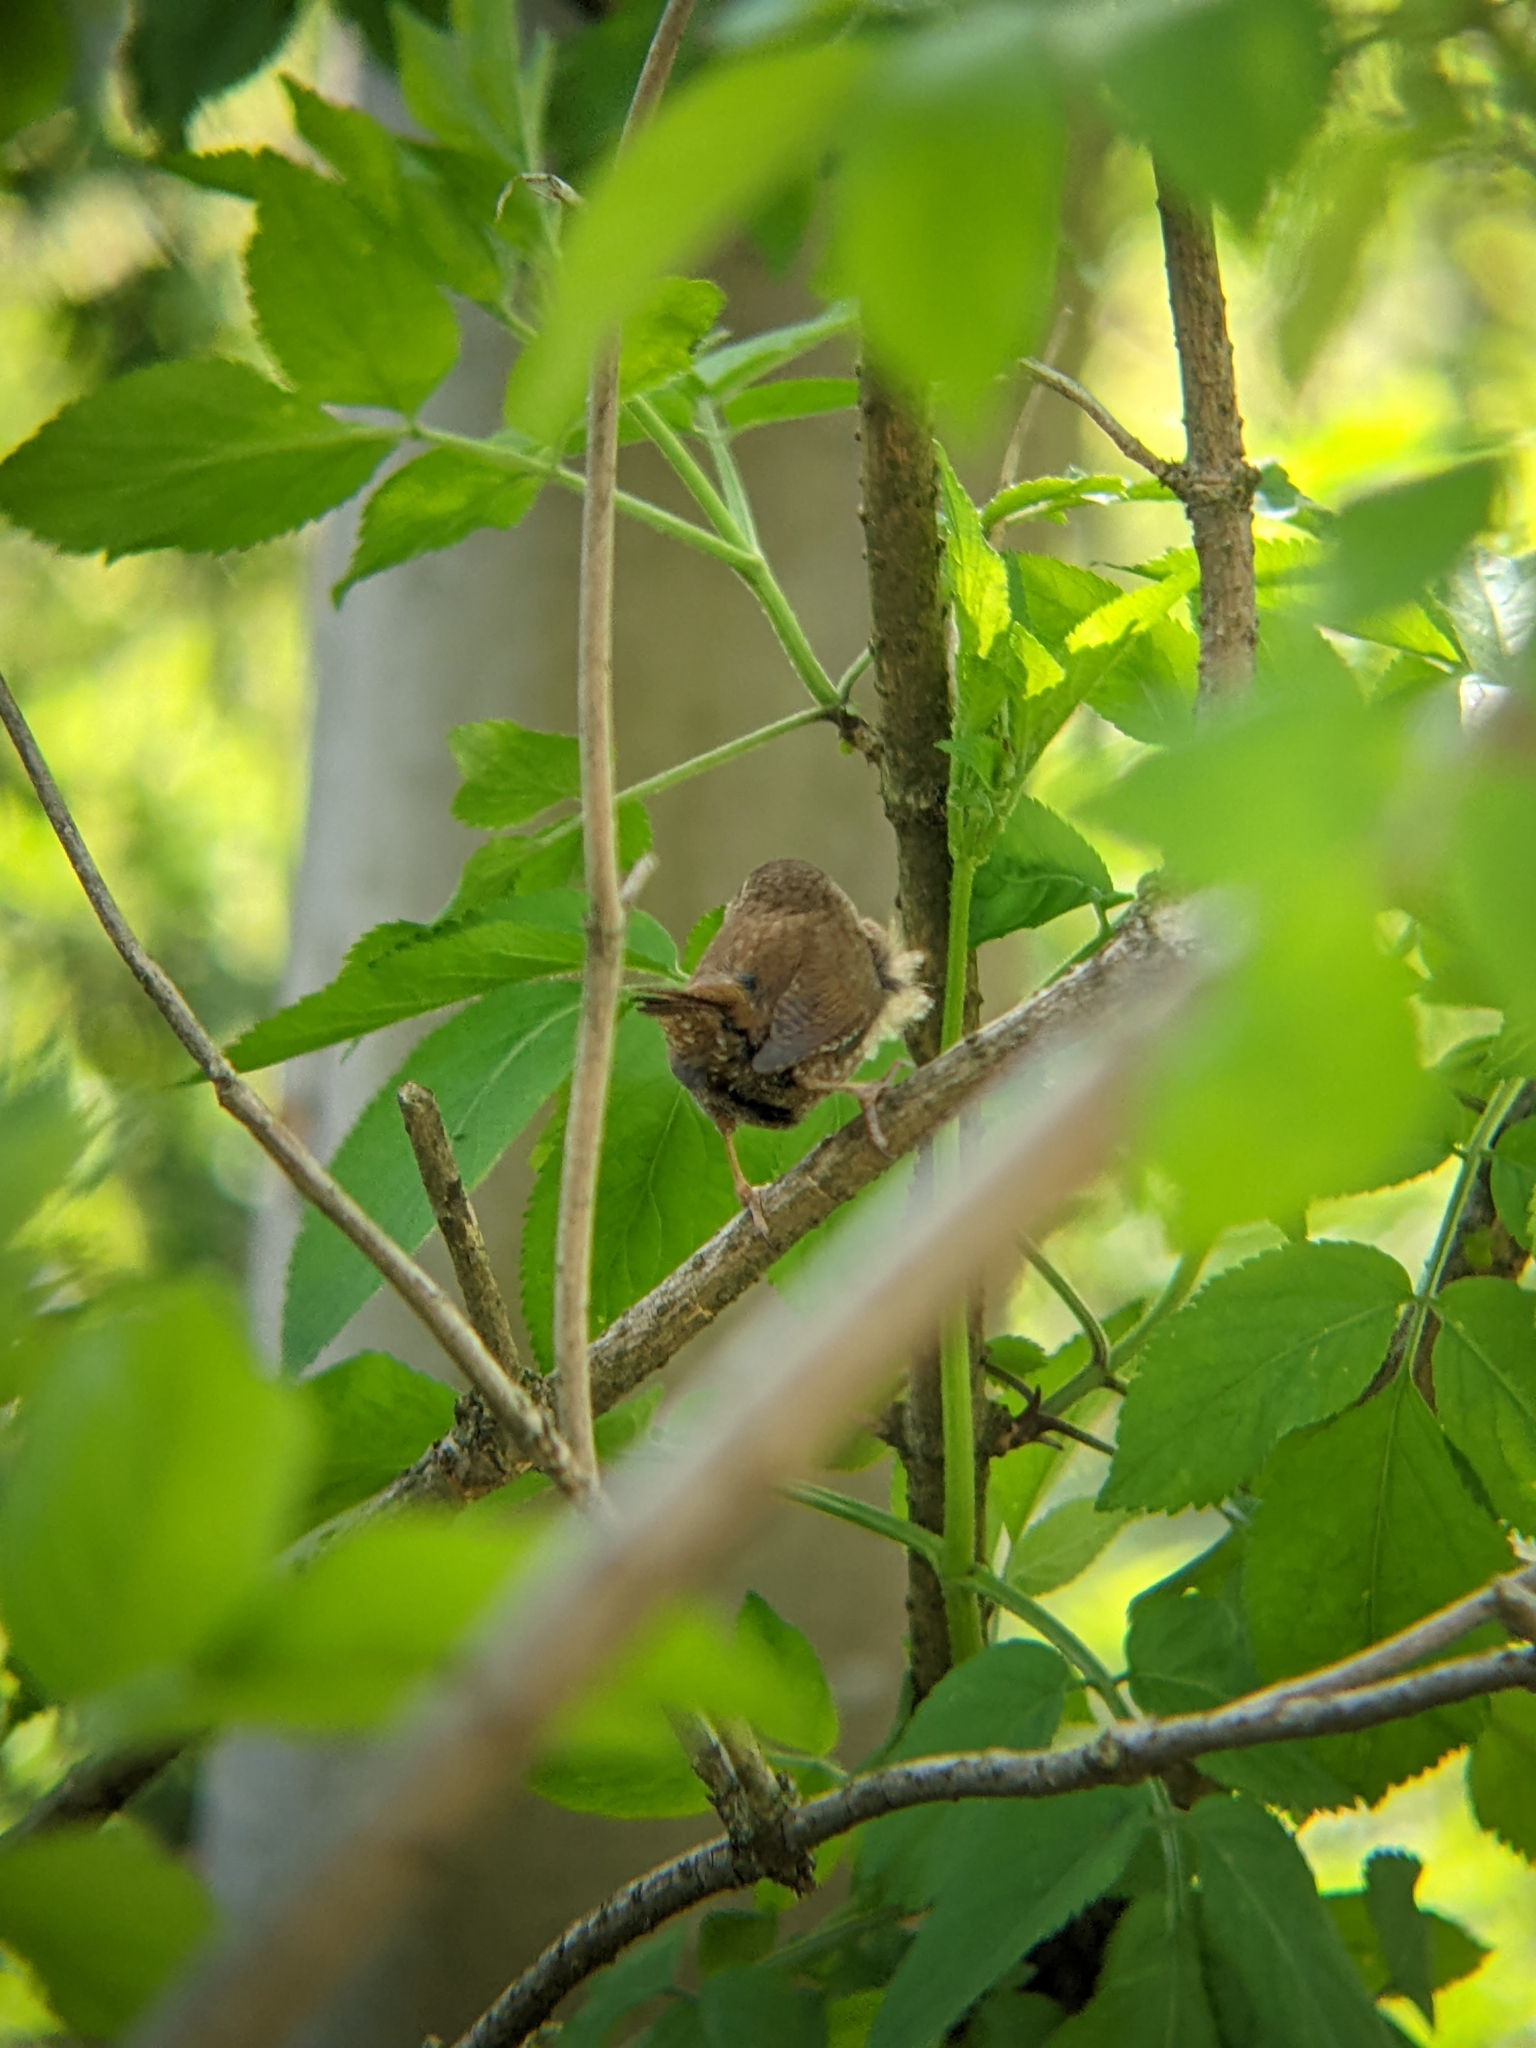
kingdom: Animalia
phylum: Chordata
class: Aves
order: Passeriformes
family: Troglodytidae
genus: Troglodytes
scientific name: Troglodytes troglodytes
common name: Eurasian wren
